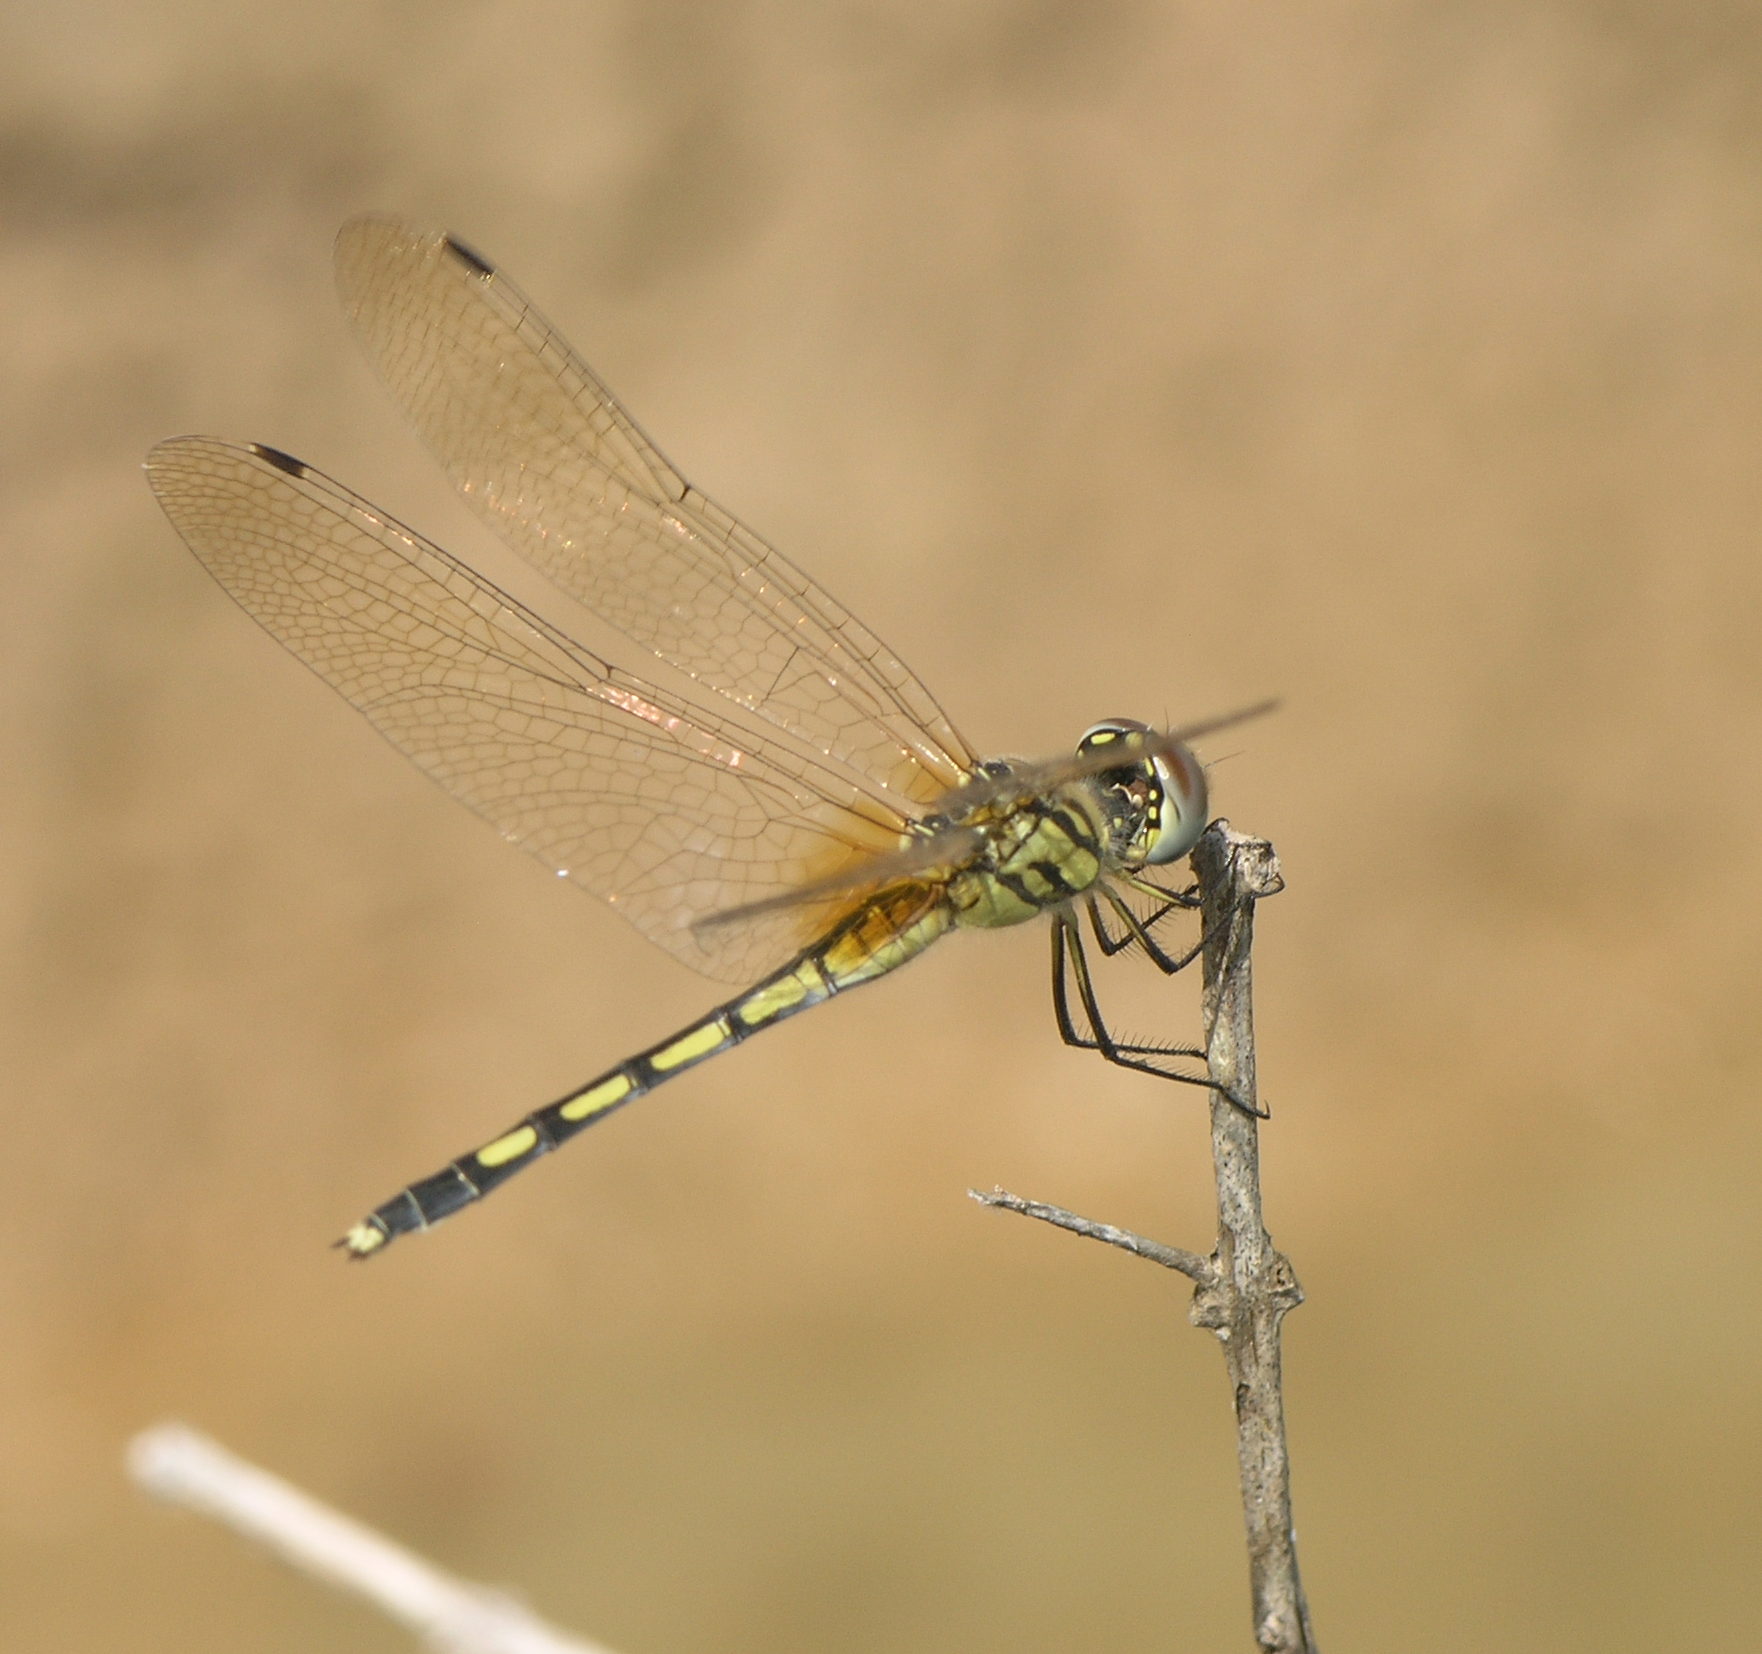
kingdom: Animalia
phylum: Arthropoda
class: Insecta
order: Odonata
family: Libellulidae
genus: Trithemis
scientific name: Trithemis pallidinervis
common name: Dancing dropwing
